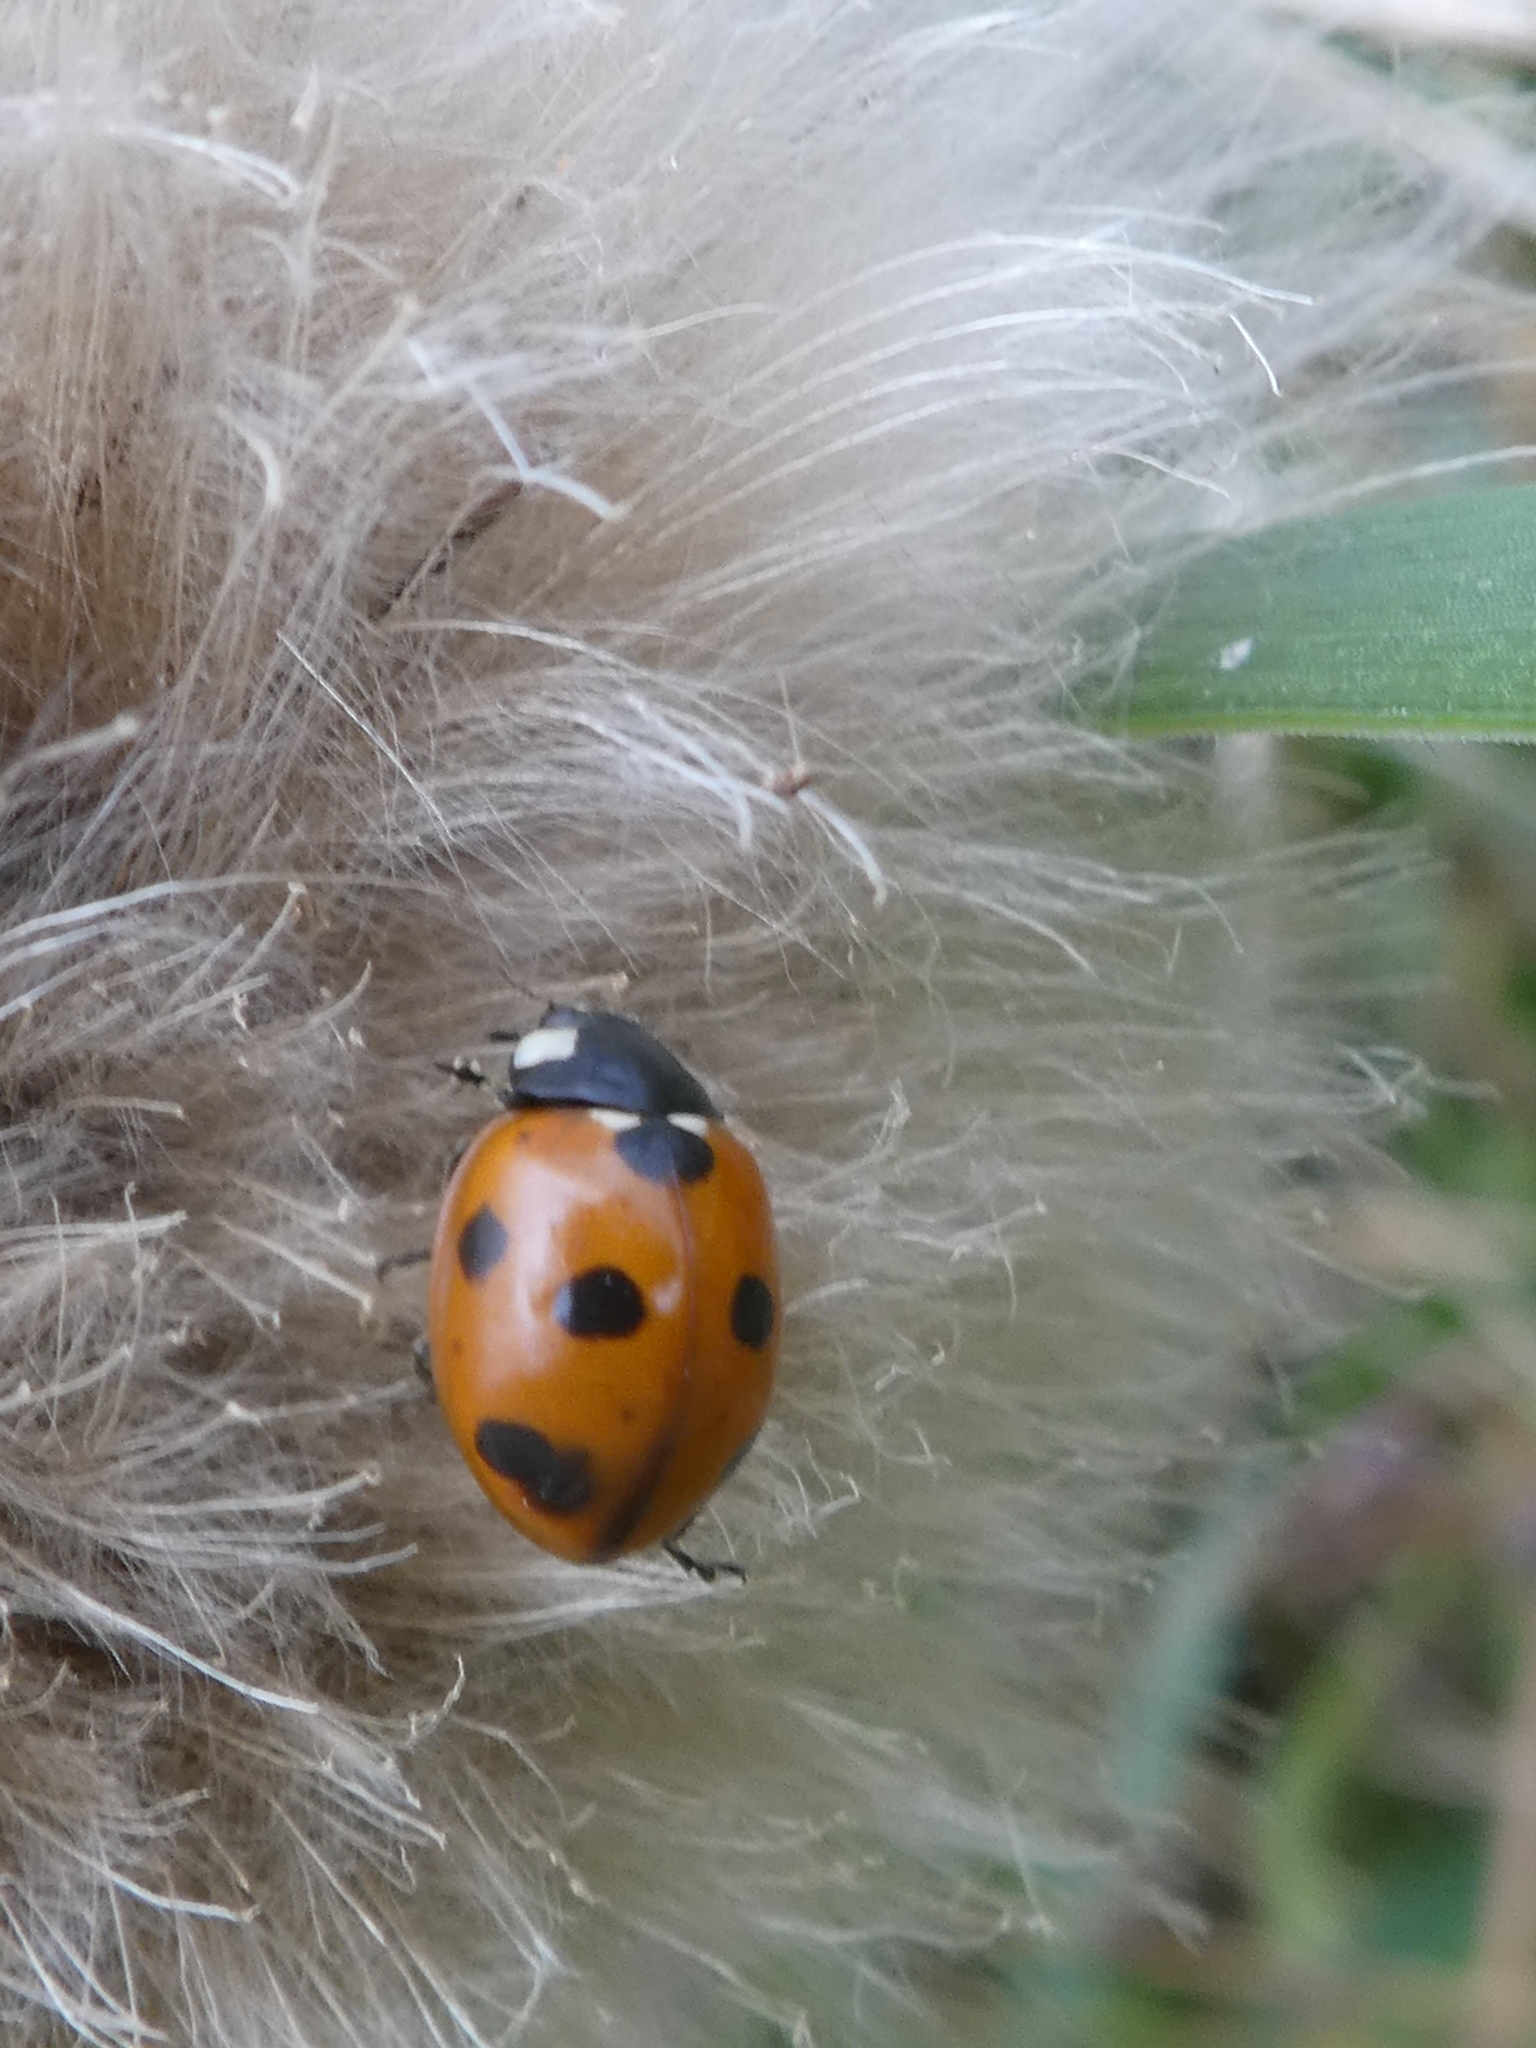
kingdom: Animalia
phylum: Arthropoda
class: Insecta
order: Coleoptera
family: Coccinellidae
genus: Coccinella
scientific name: Coccinella septempunctata
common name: Sevenspotted lady beetle
